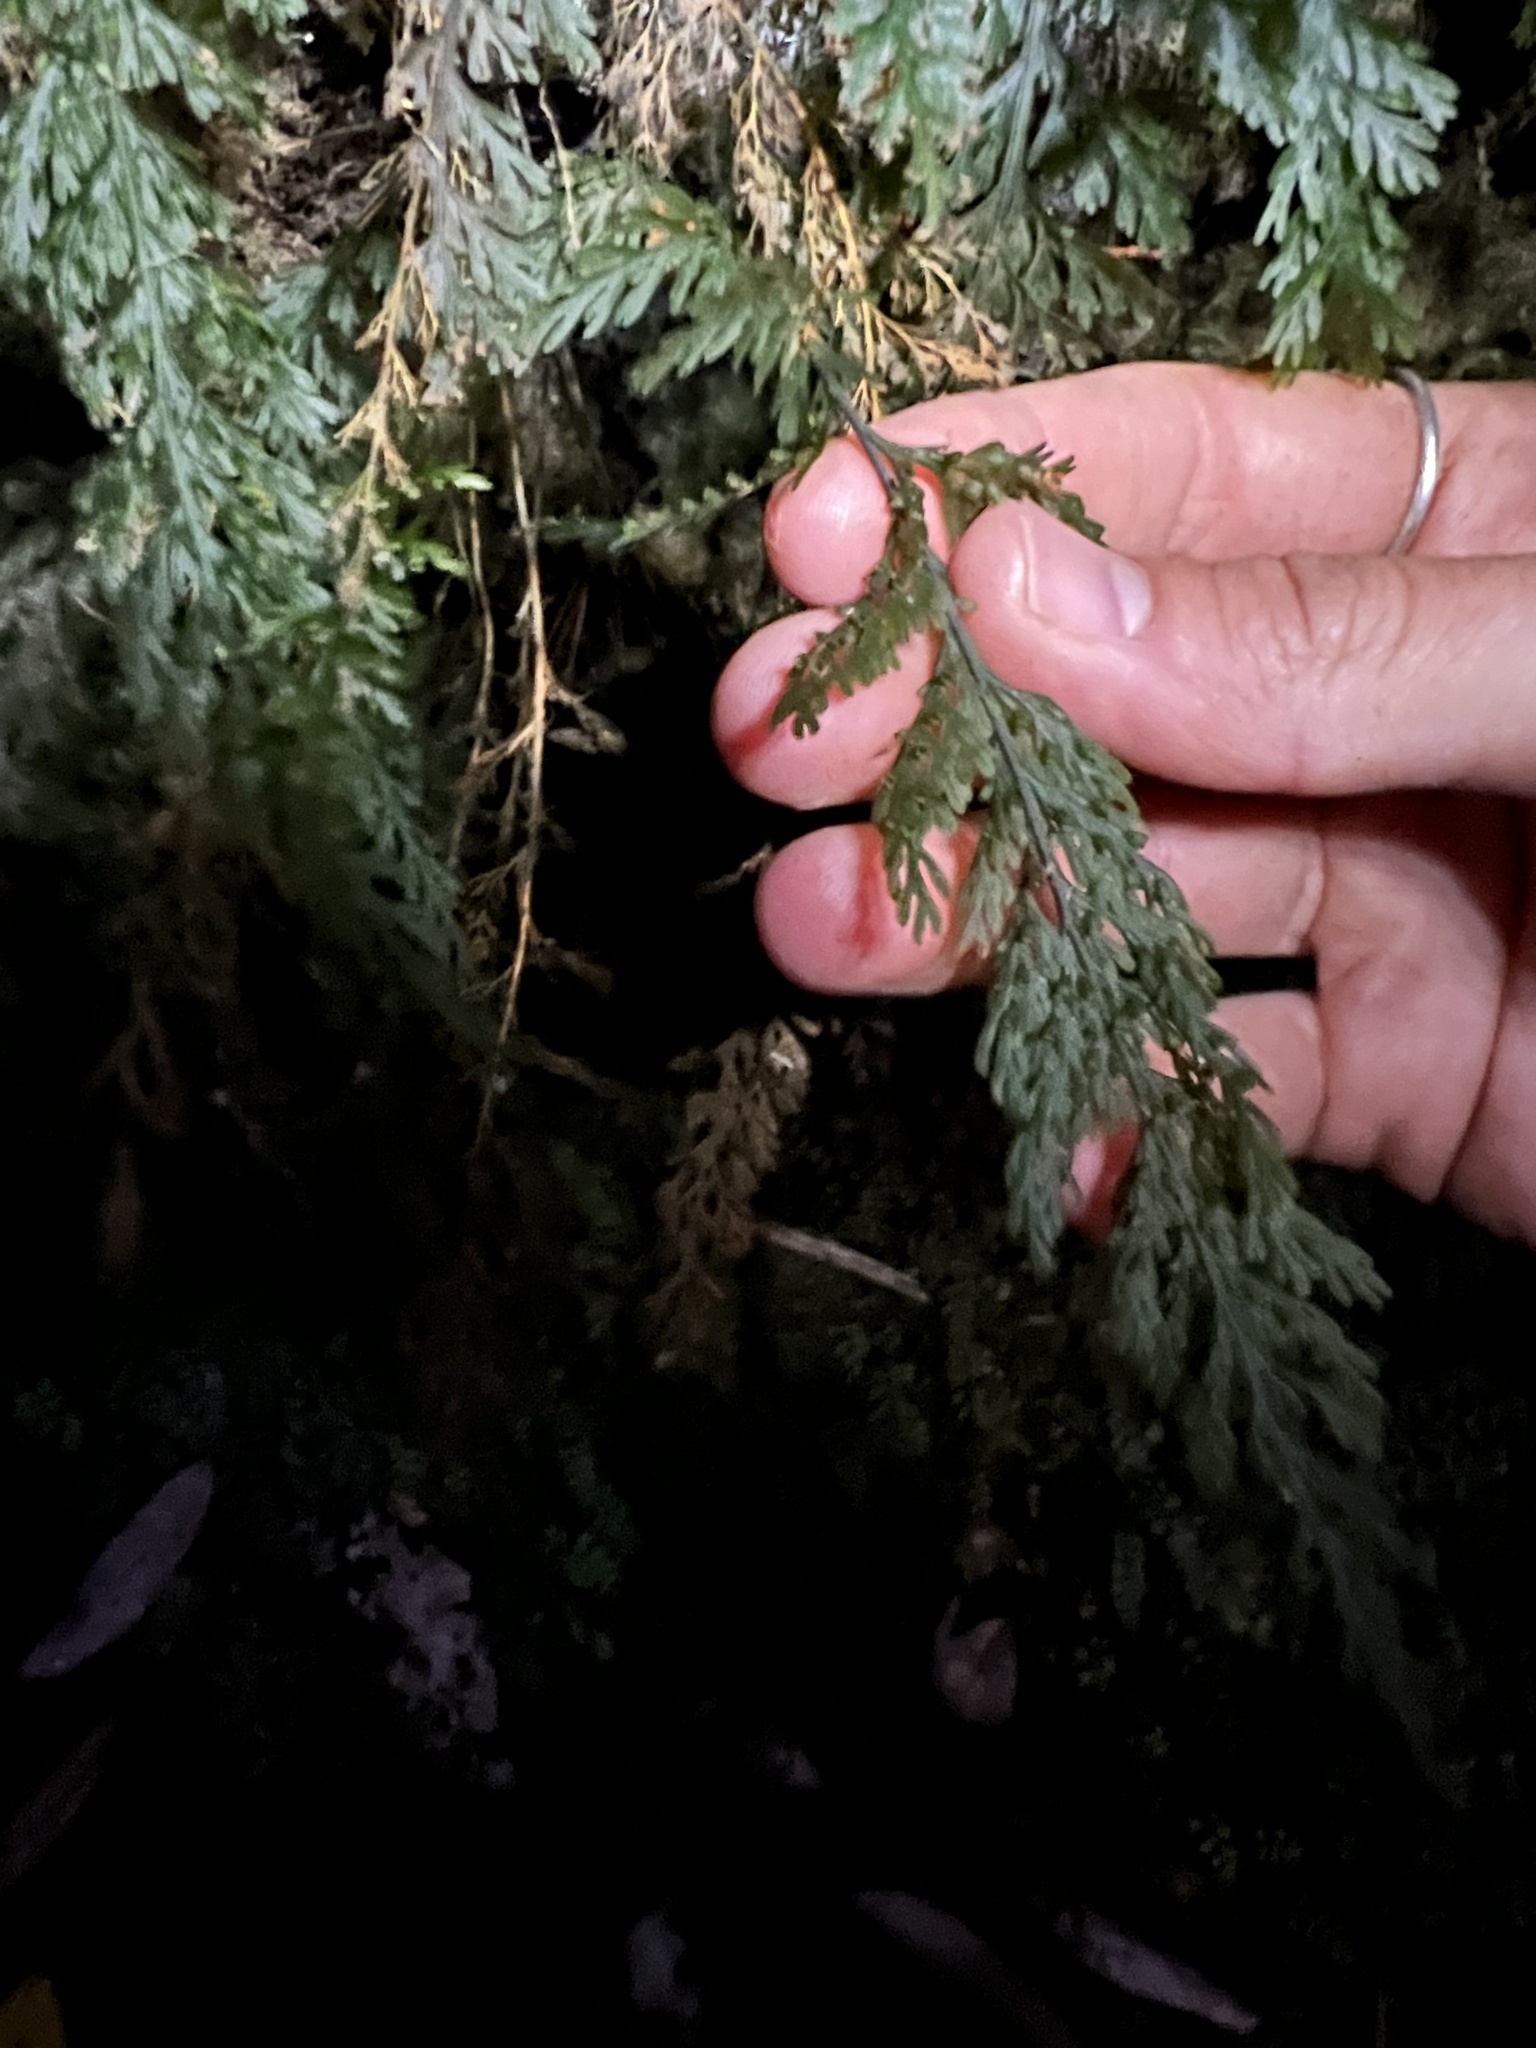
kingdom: Plantae
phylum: Tracheophyta
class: Polypodiopsida
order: Hymenophyllales
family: Hymenophyllaceae
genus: Abrodictyum
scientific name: Abrodictyum strictum
